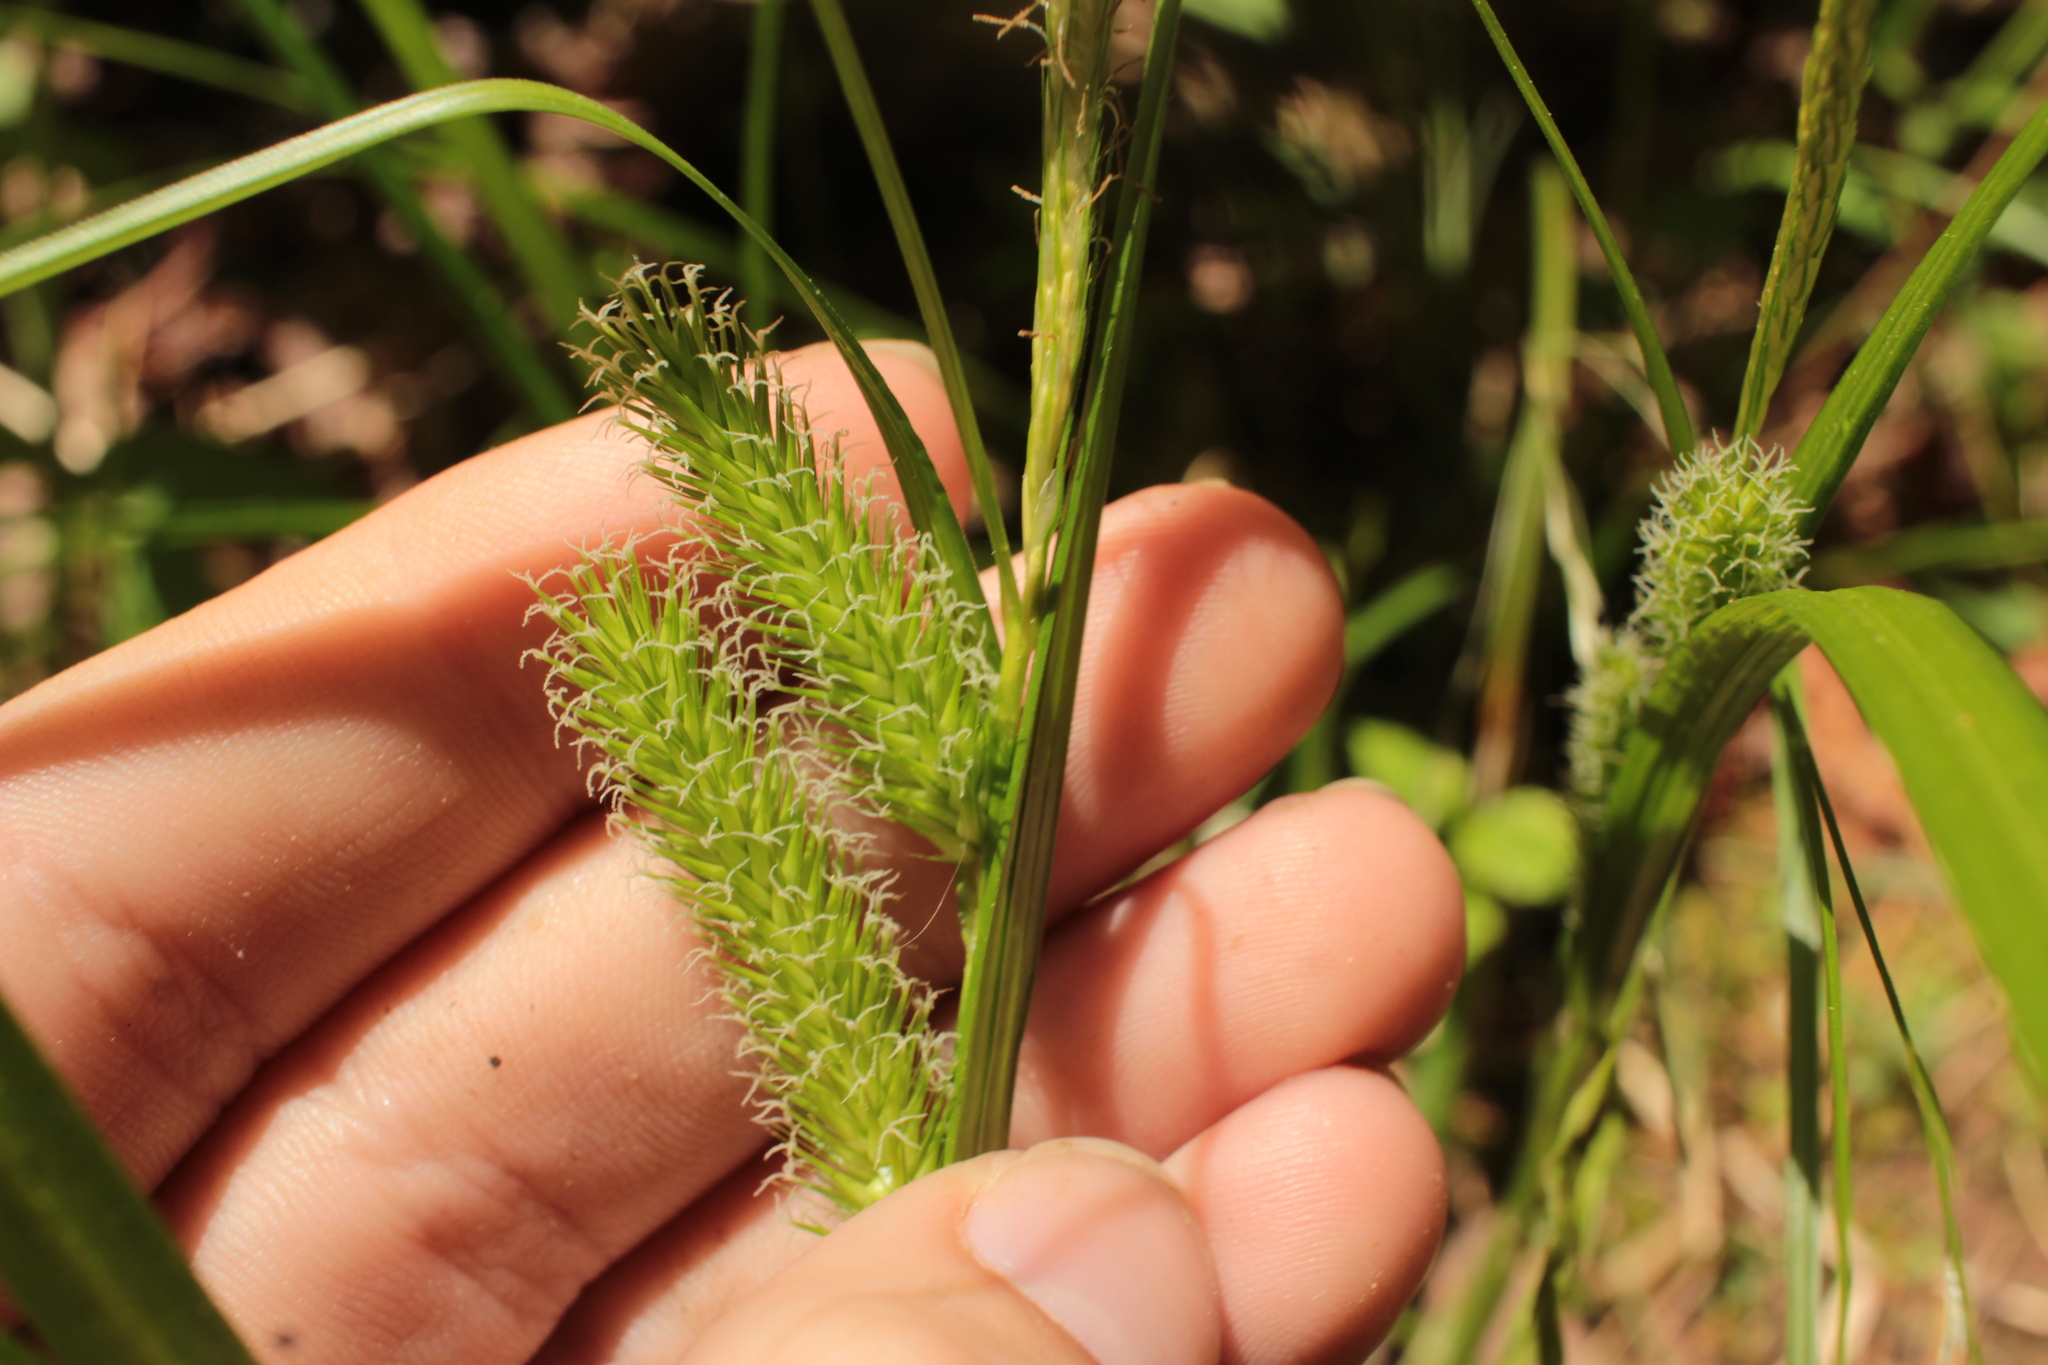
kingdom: Plantae
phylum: Tracheophyta
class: Liliopsida
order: Poales
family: Cyperaceae
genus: Carex
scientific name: Carex lurida
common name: Sallow sedge
